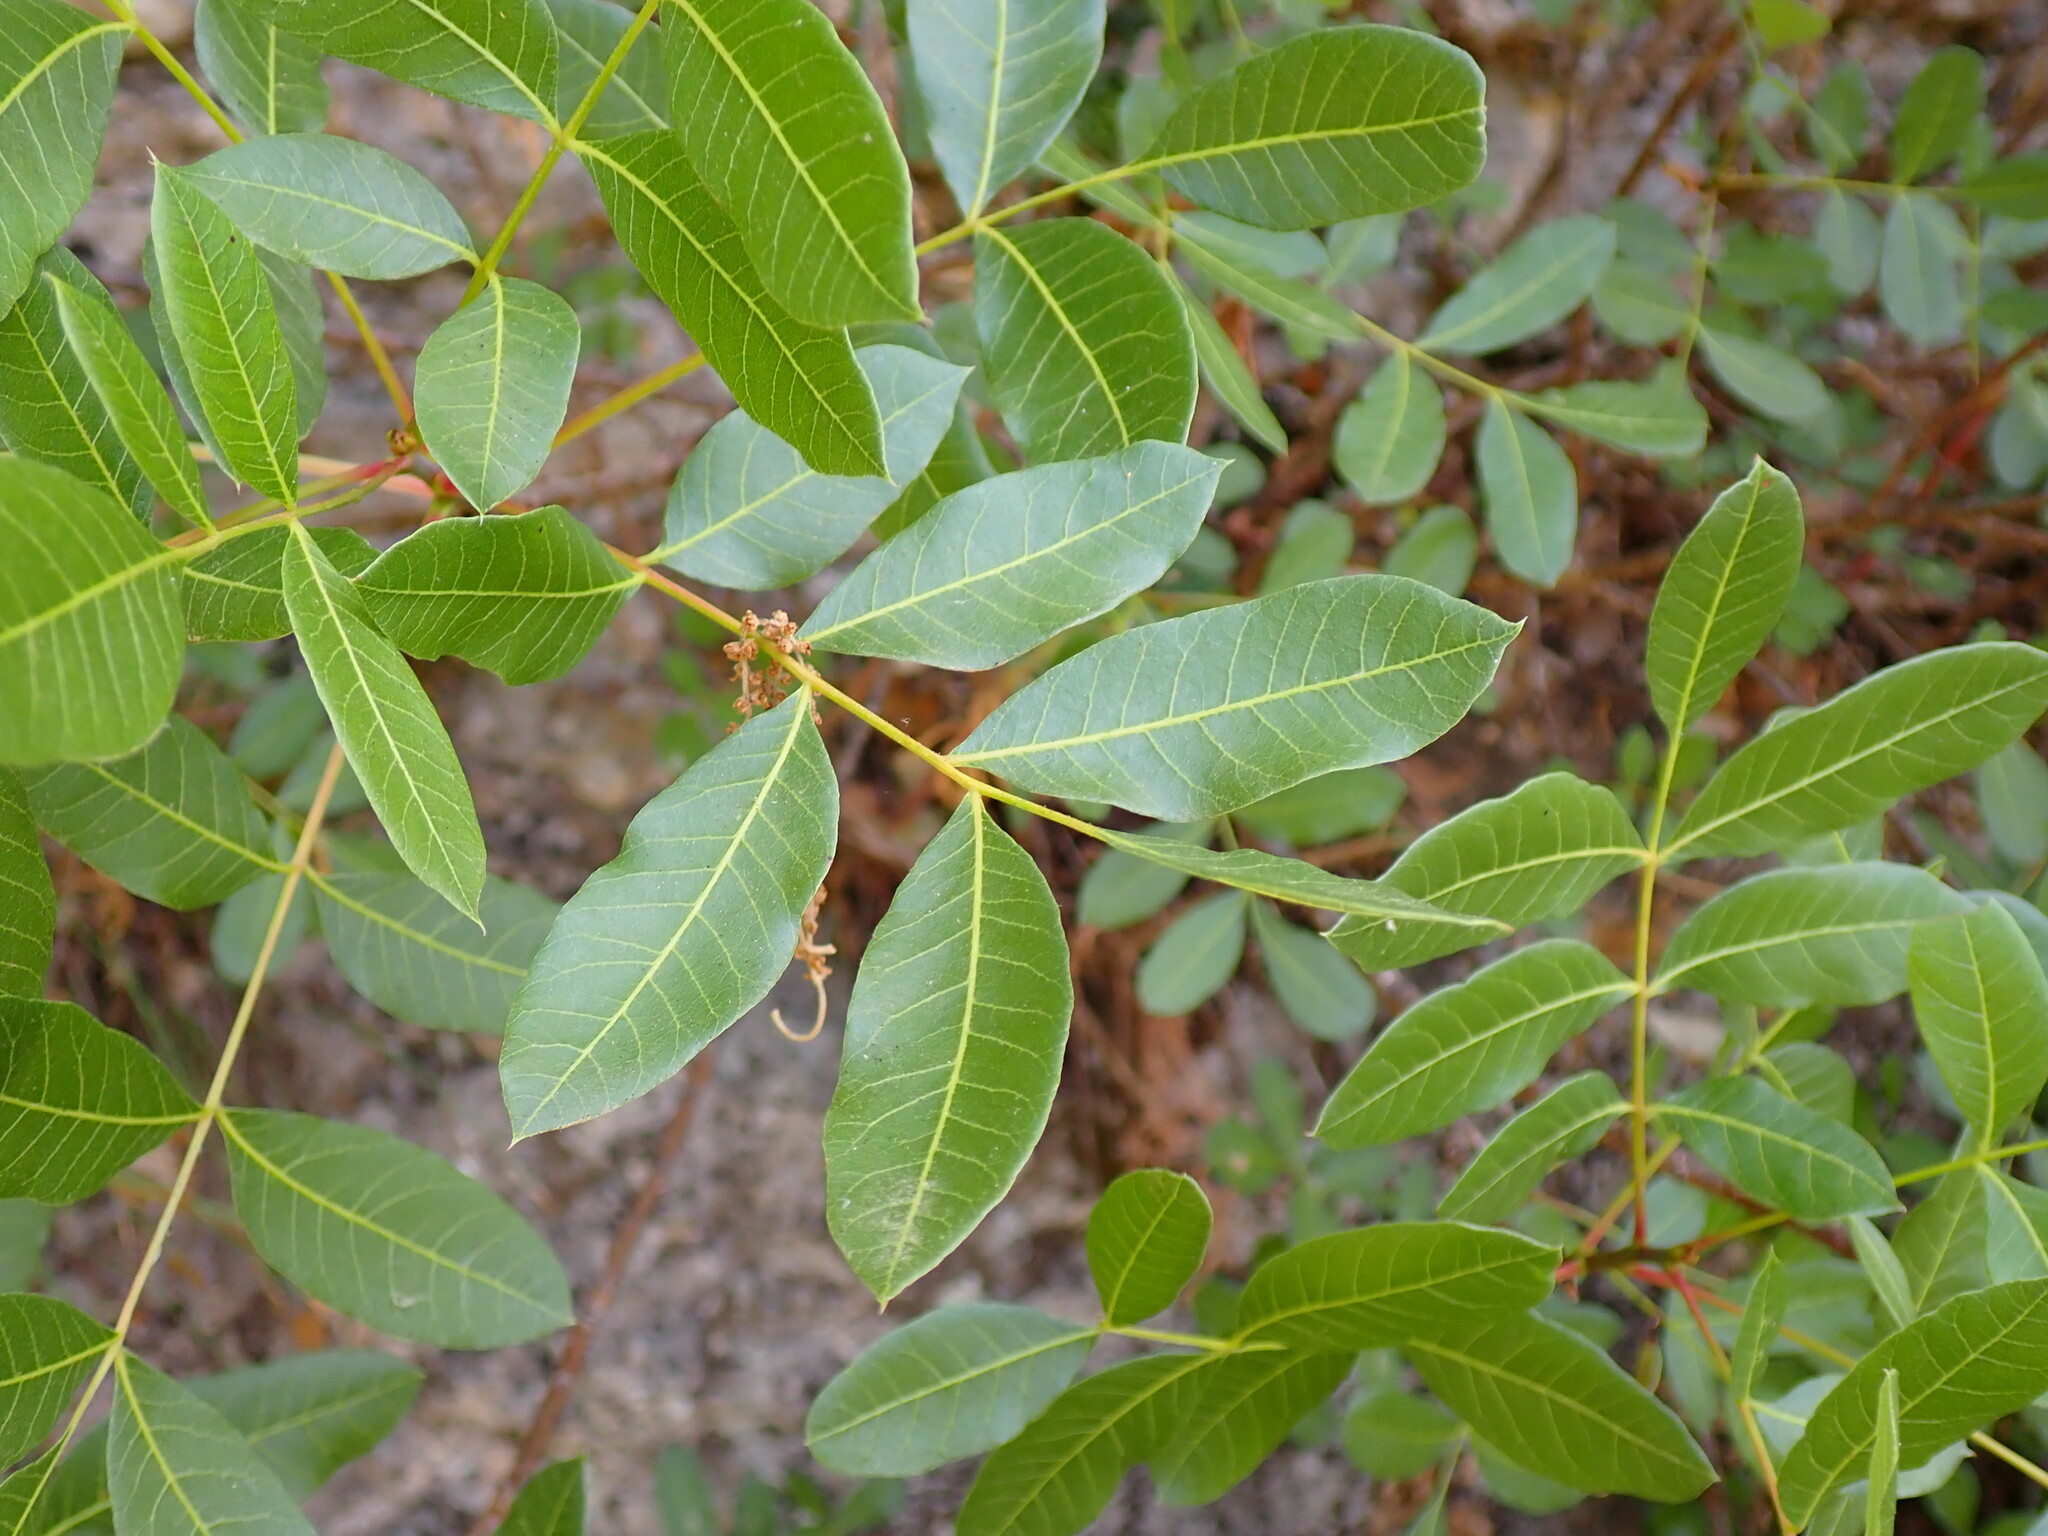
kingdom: Plantae
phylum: Tracheophyta
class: Magnoliopsida
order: Sapindales
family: Anacardiaceae
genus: Pistacia
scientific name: Pistacia terebinthus
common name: Terebinth
